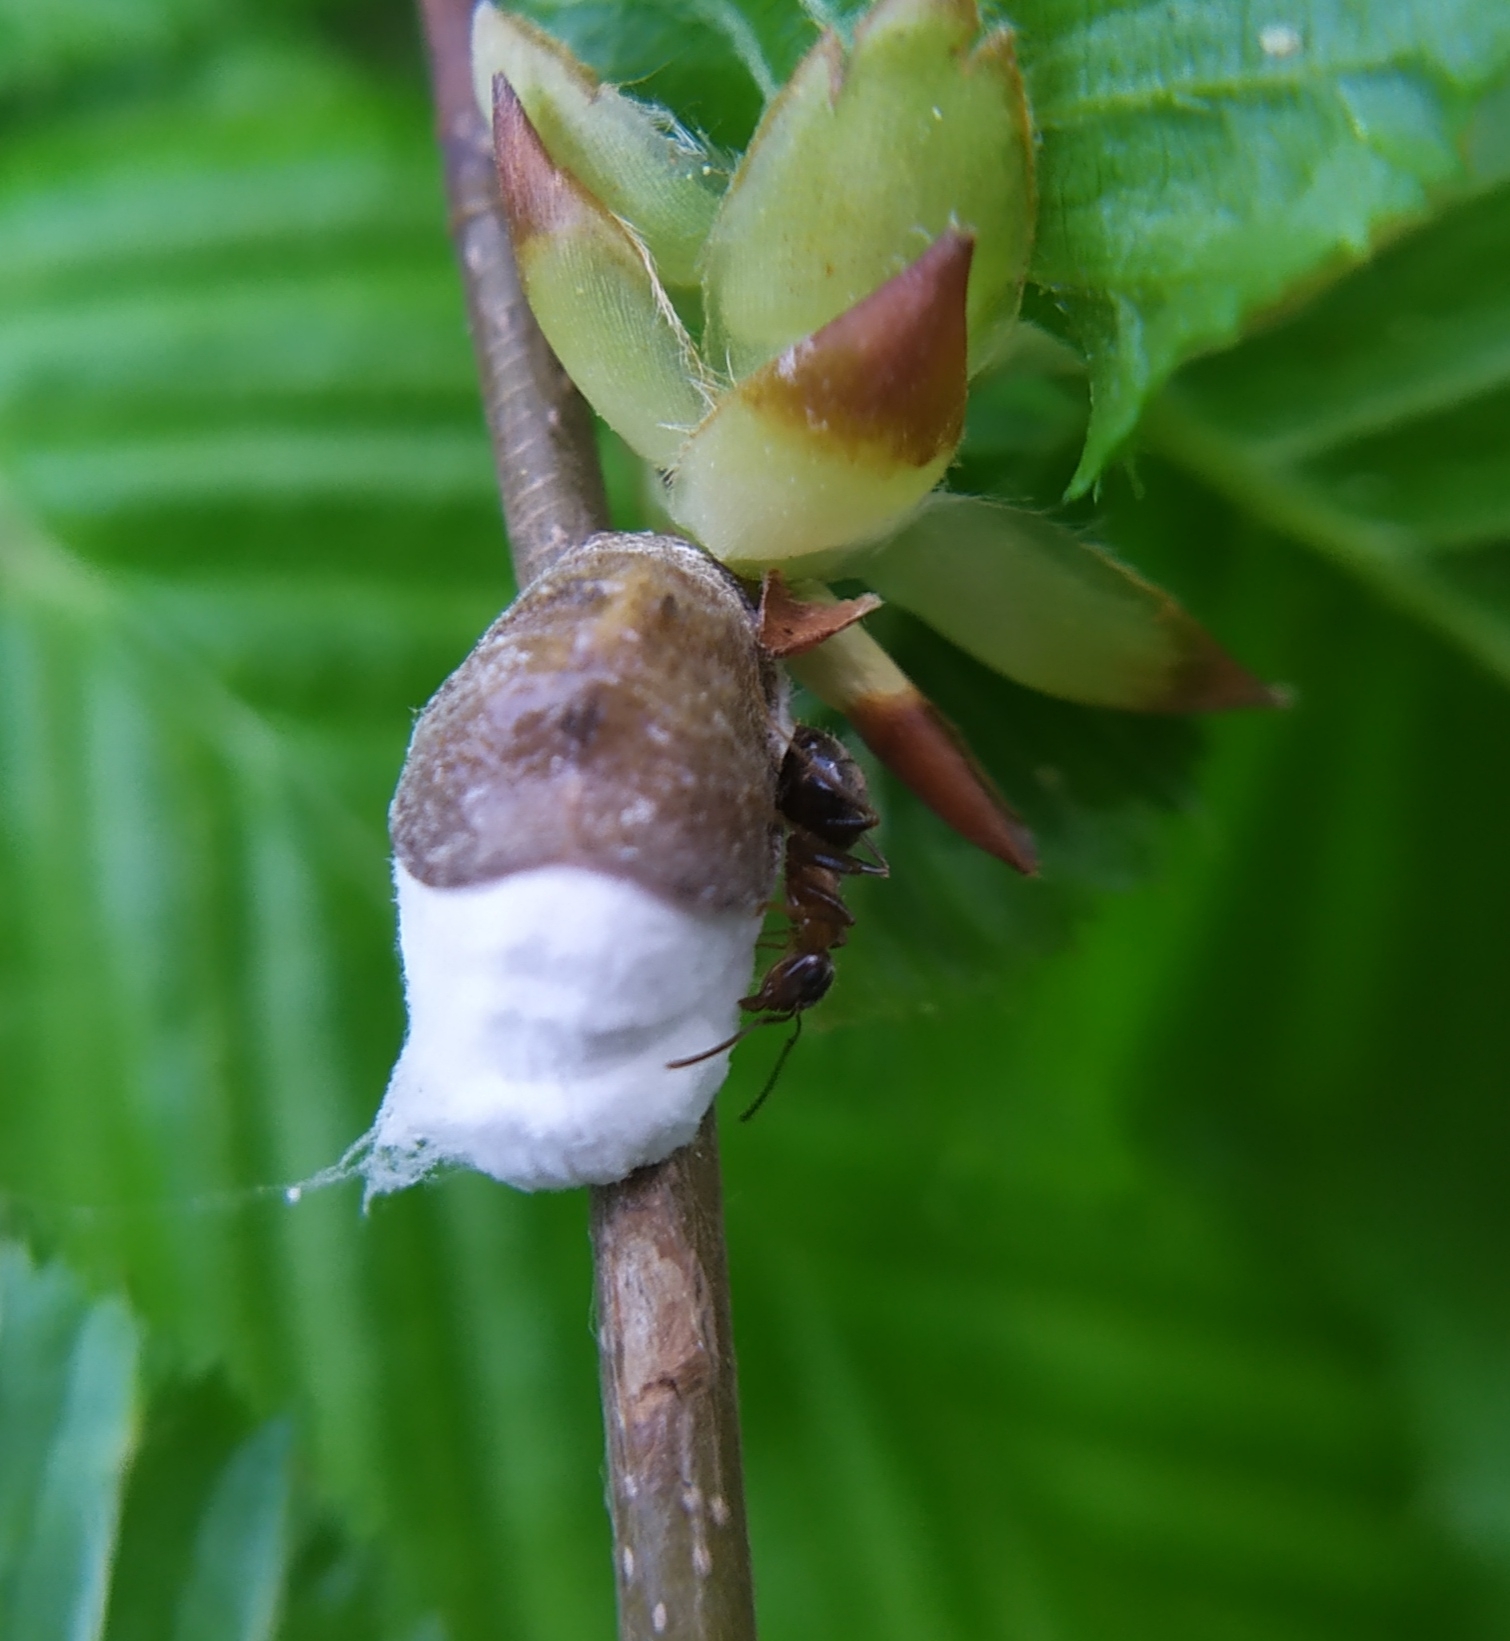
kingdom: Animalia
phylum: Arthropoda
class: Insecta
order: Hymenoptera
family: Formicidae
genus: Lasius
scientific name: Lasius emarginatus
